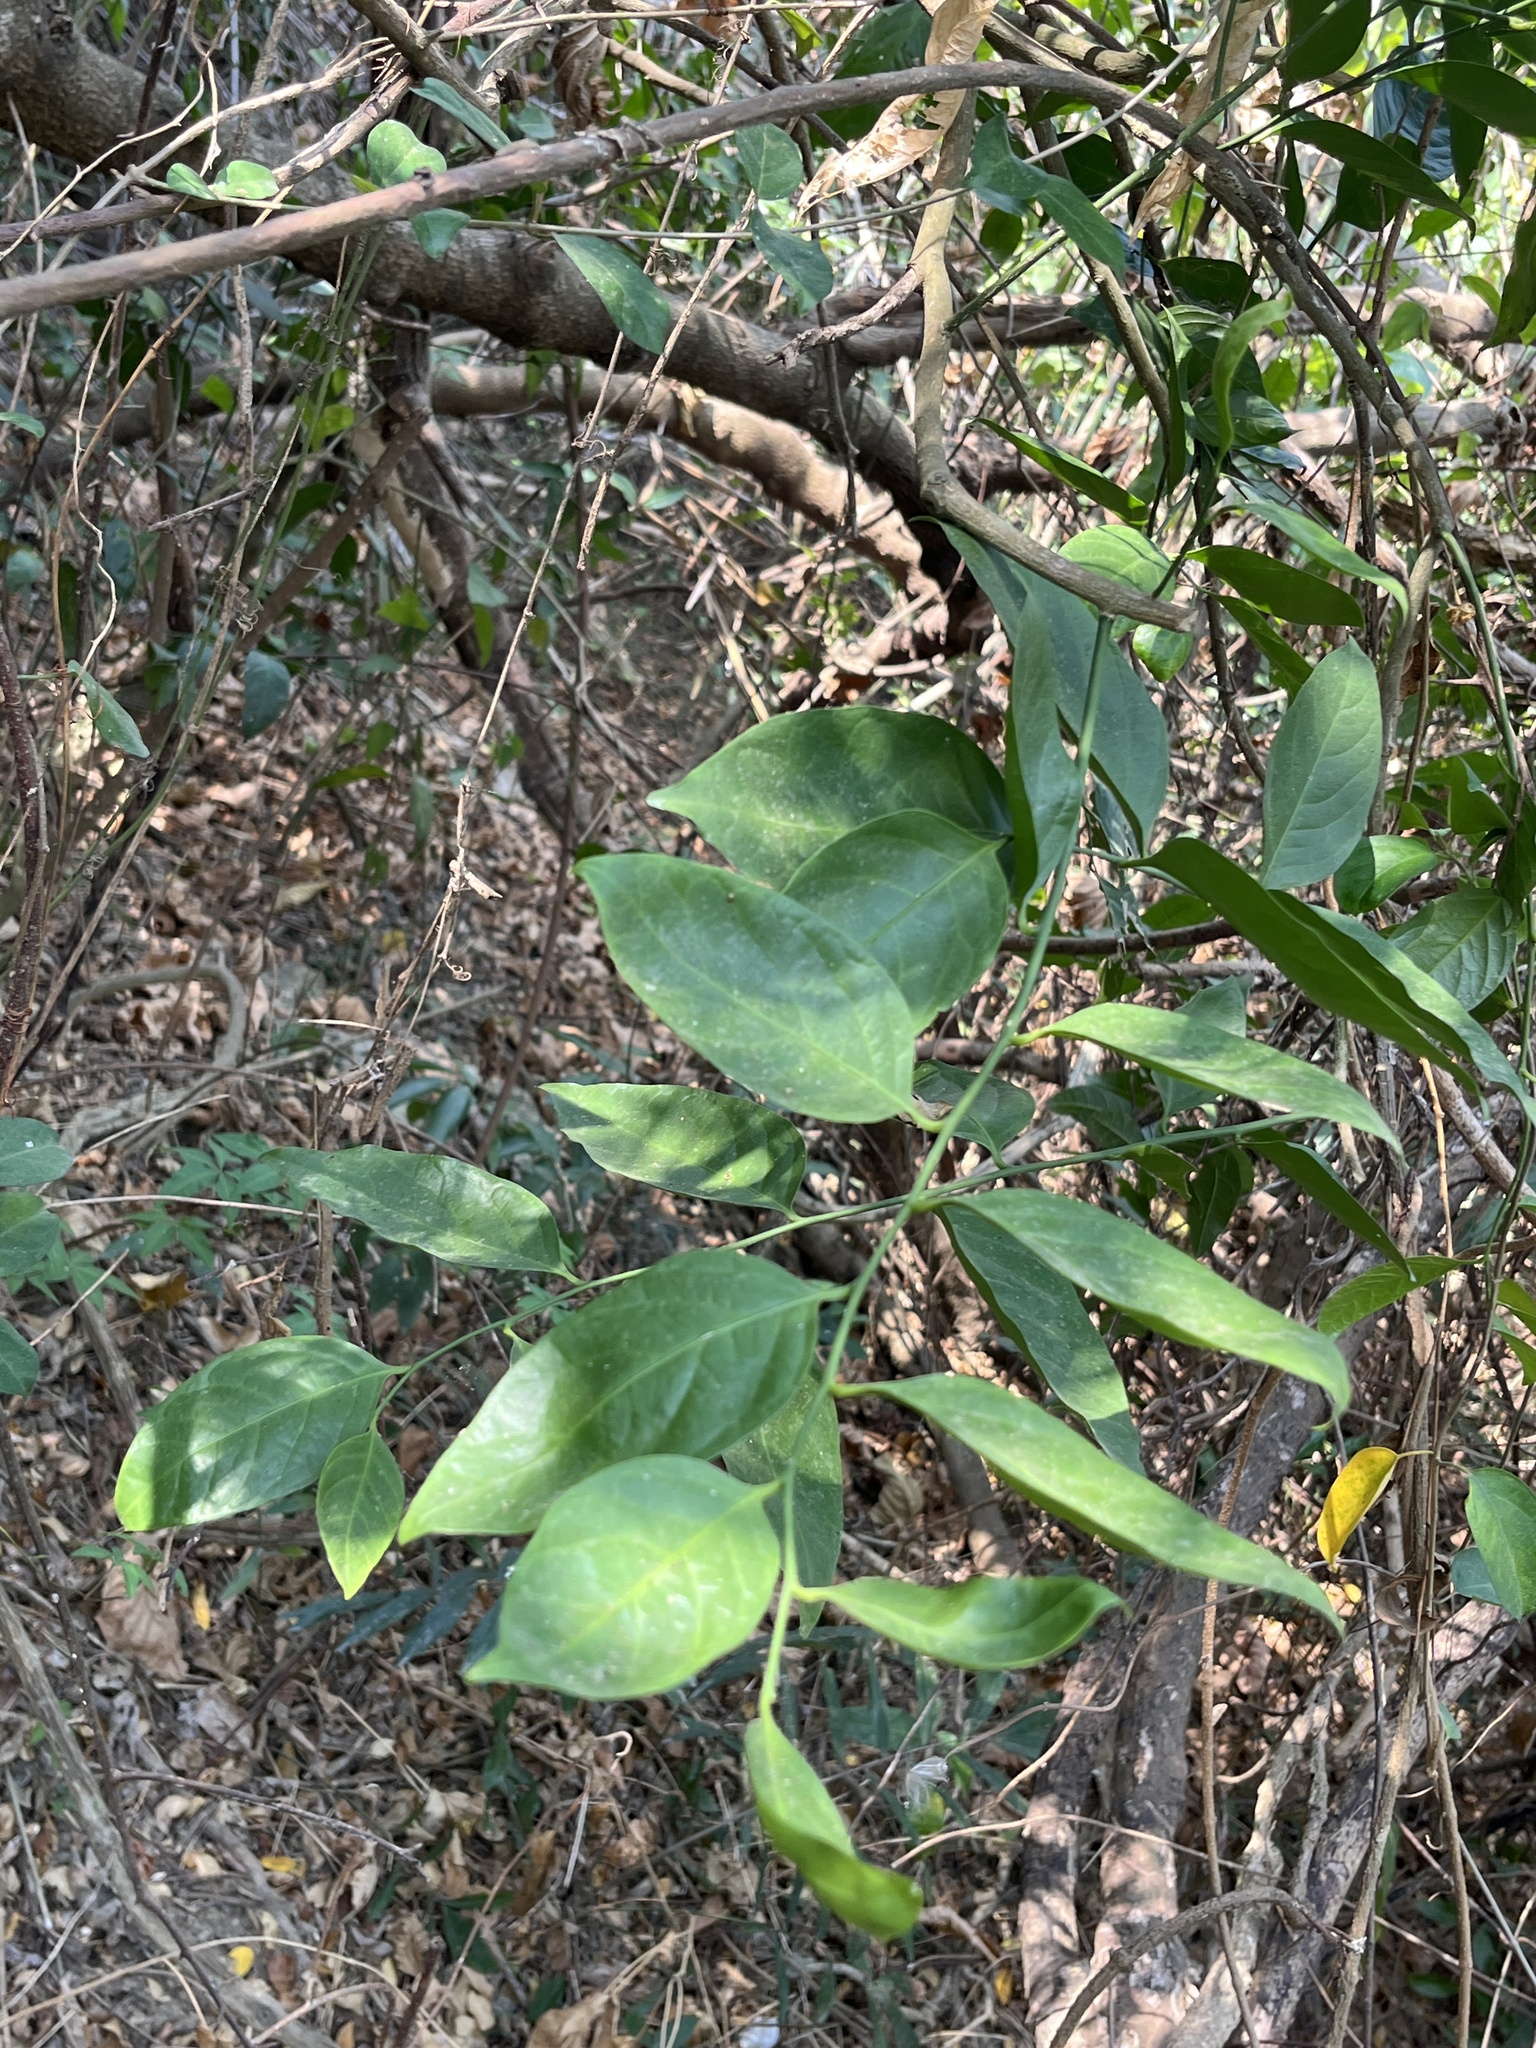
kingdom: Plantae
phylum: Tracheophyta
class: Magnoliopsida
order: Santalales
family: Opiliaceae
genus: Champereia
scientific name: Champereia manillana
